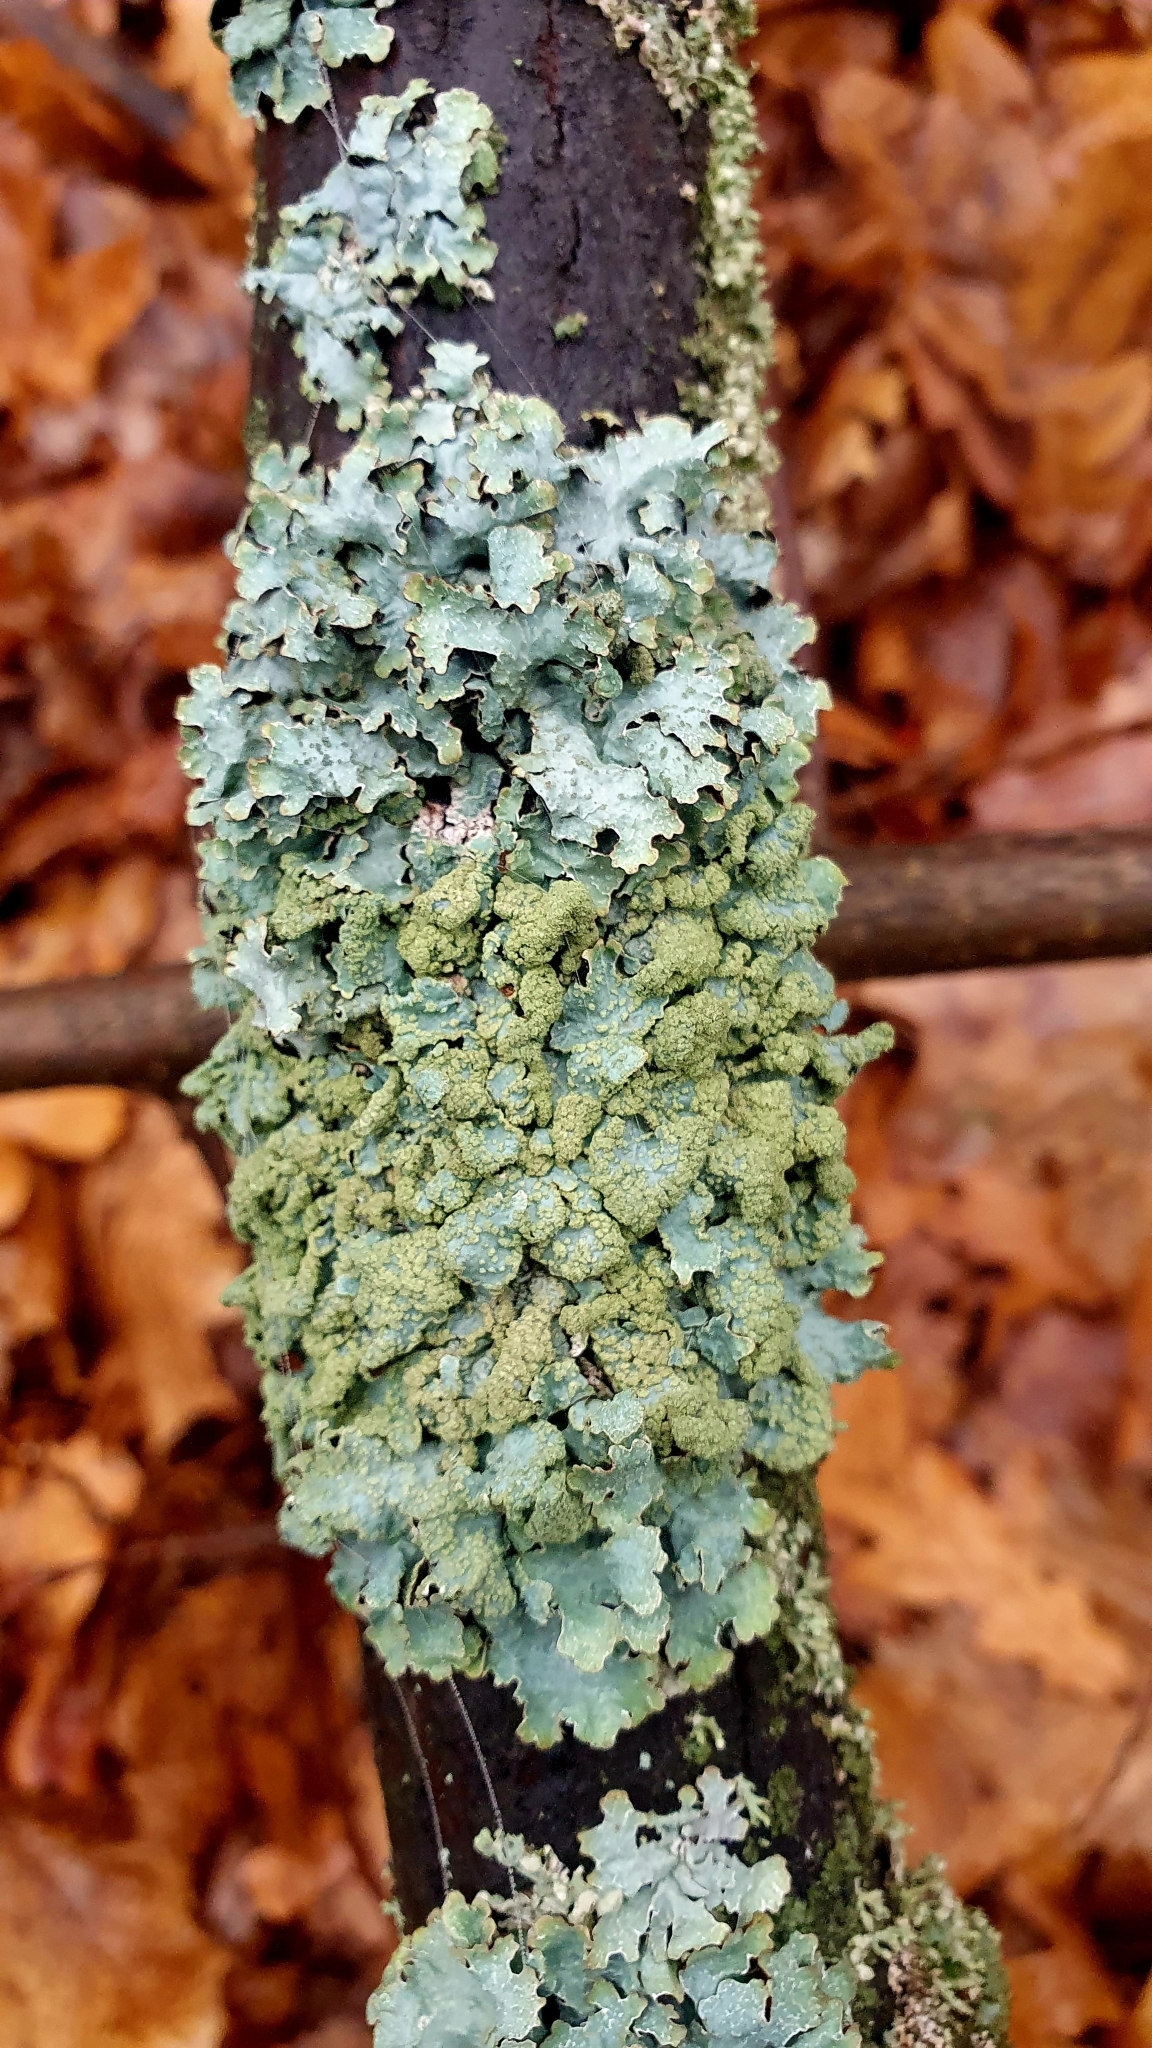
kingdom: Fungi
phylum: Ascomycota
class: Lecanoromycetes
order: Lecanorales
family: Parmeliaceae
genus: Parmelia
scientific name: Parmelia sulcata
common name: Netted shield lichen
